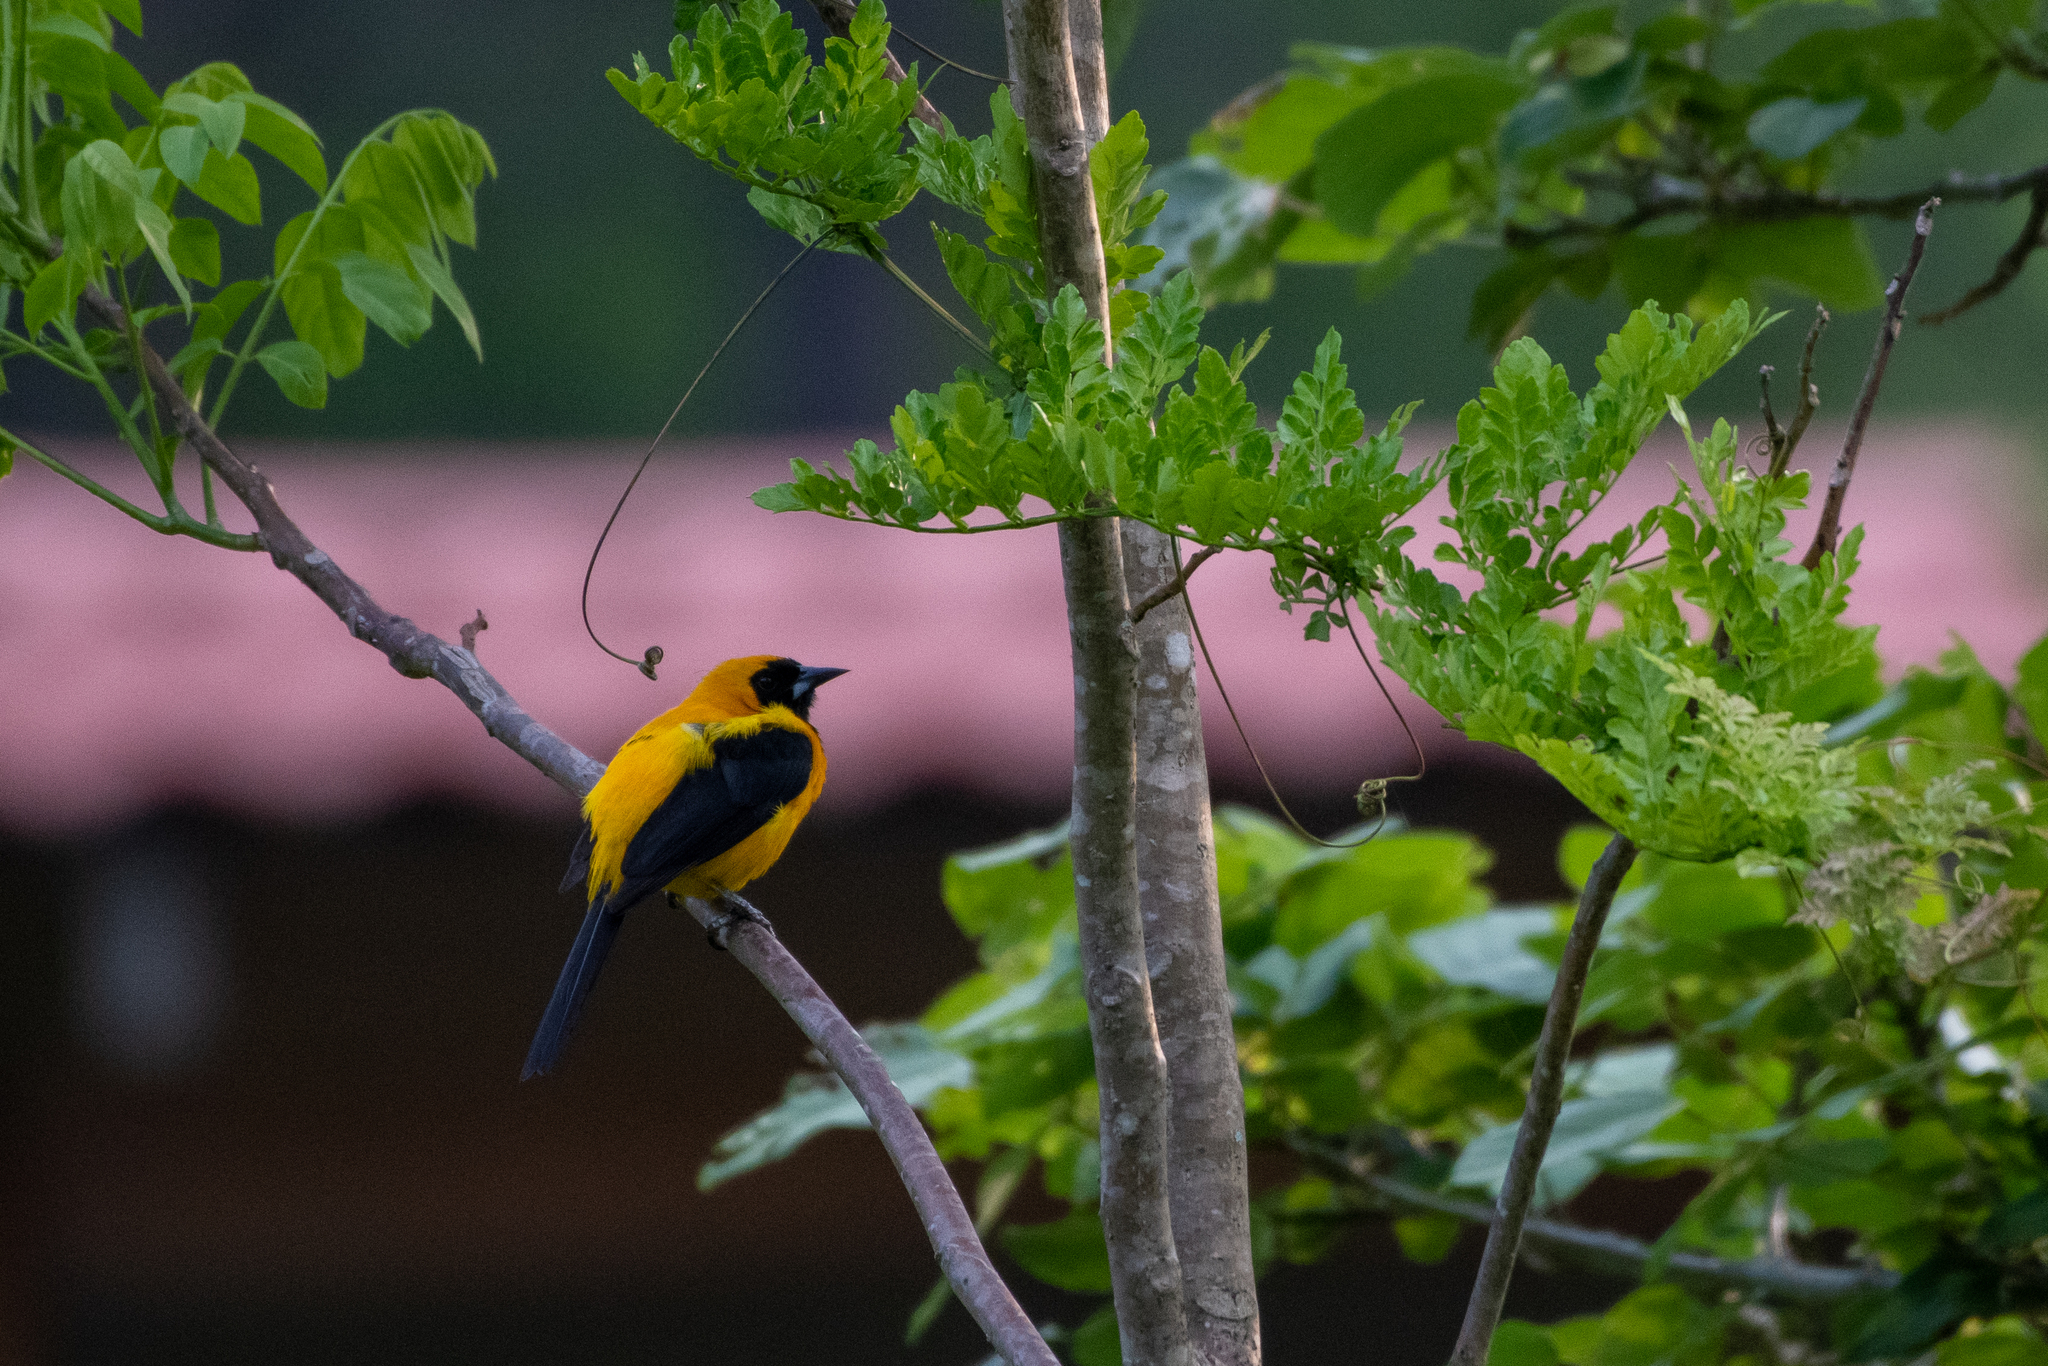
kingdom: Animalia
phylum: Chordata
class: Aves
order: Passeriformes
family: Icteridae
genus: Icterus
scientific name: Icterus chrysater
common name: Yellow-backed oriole
